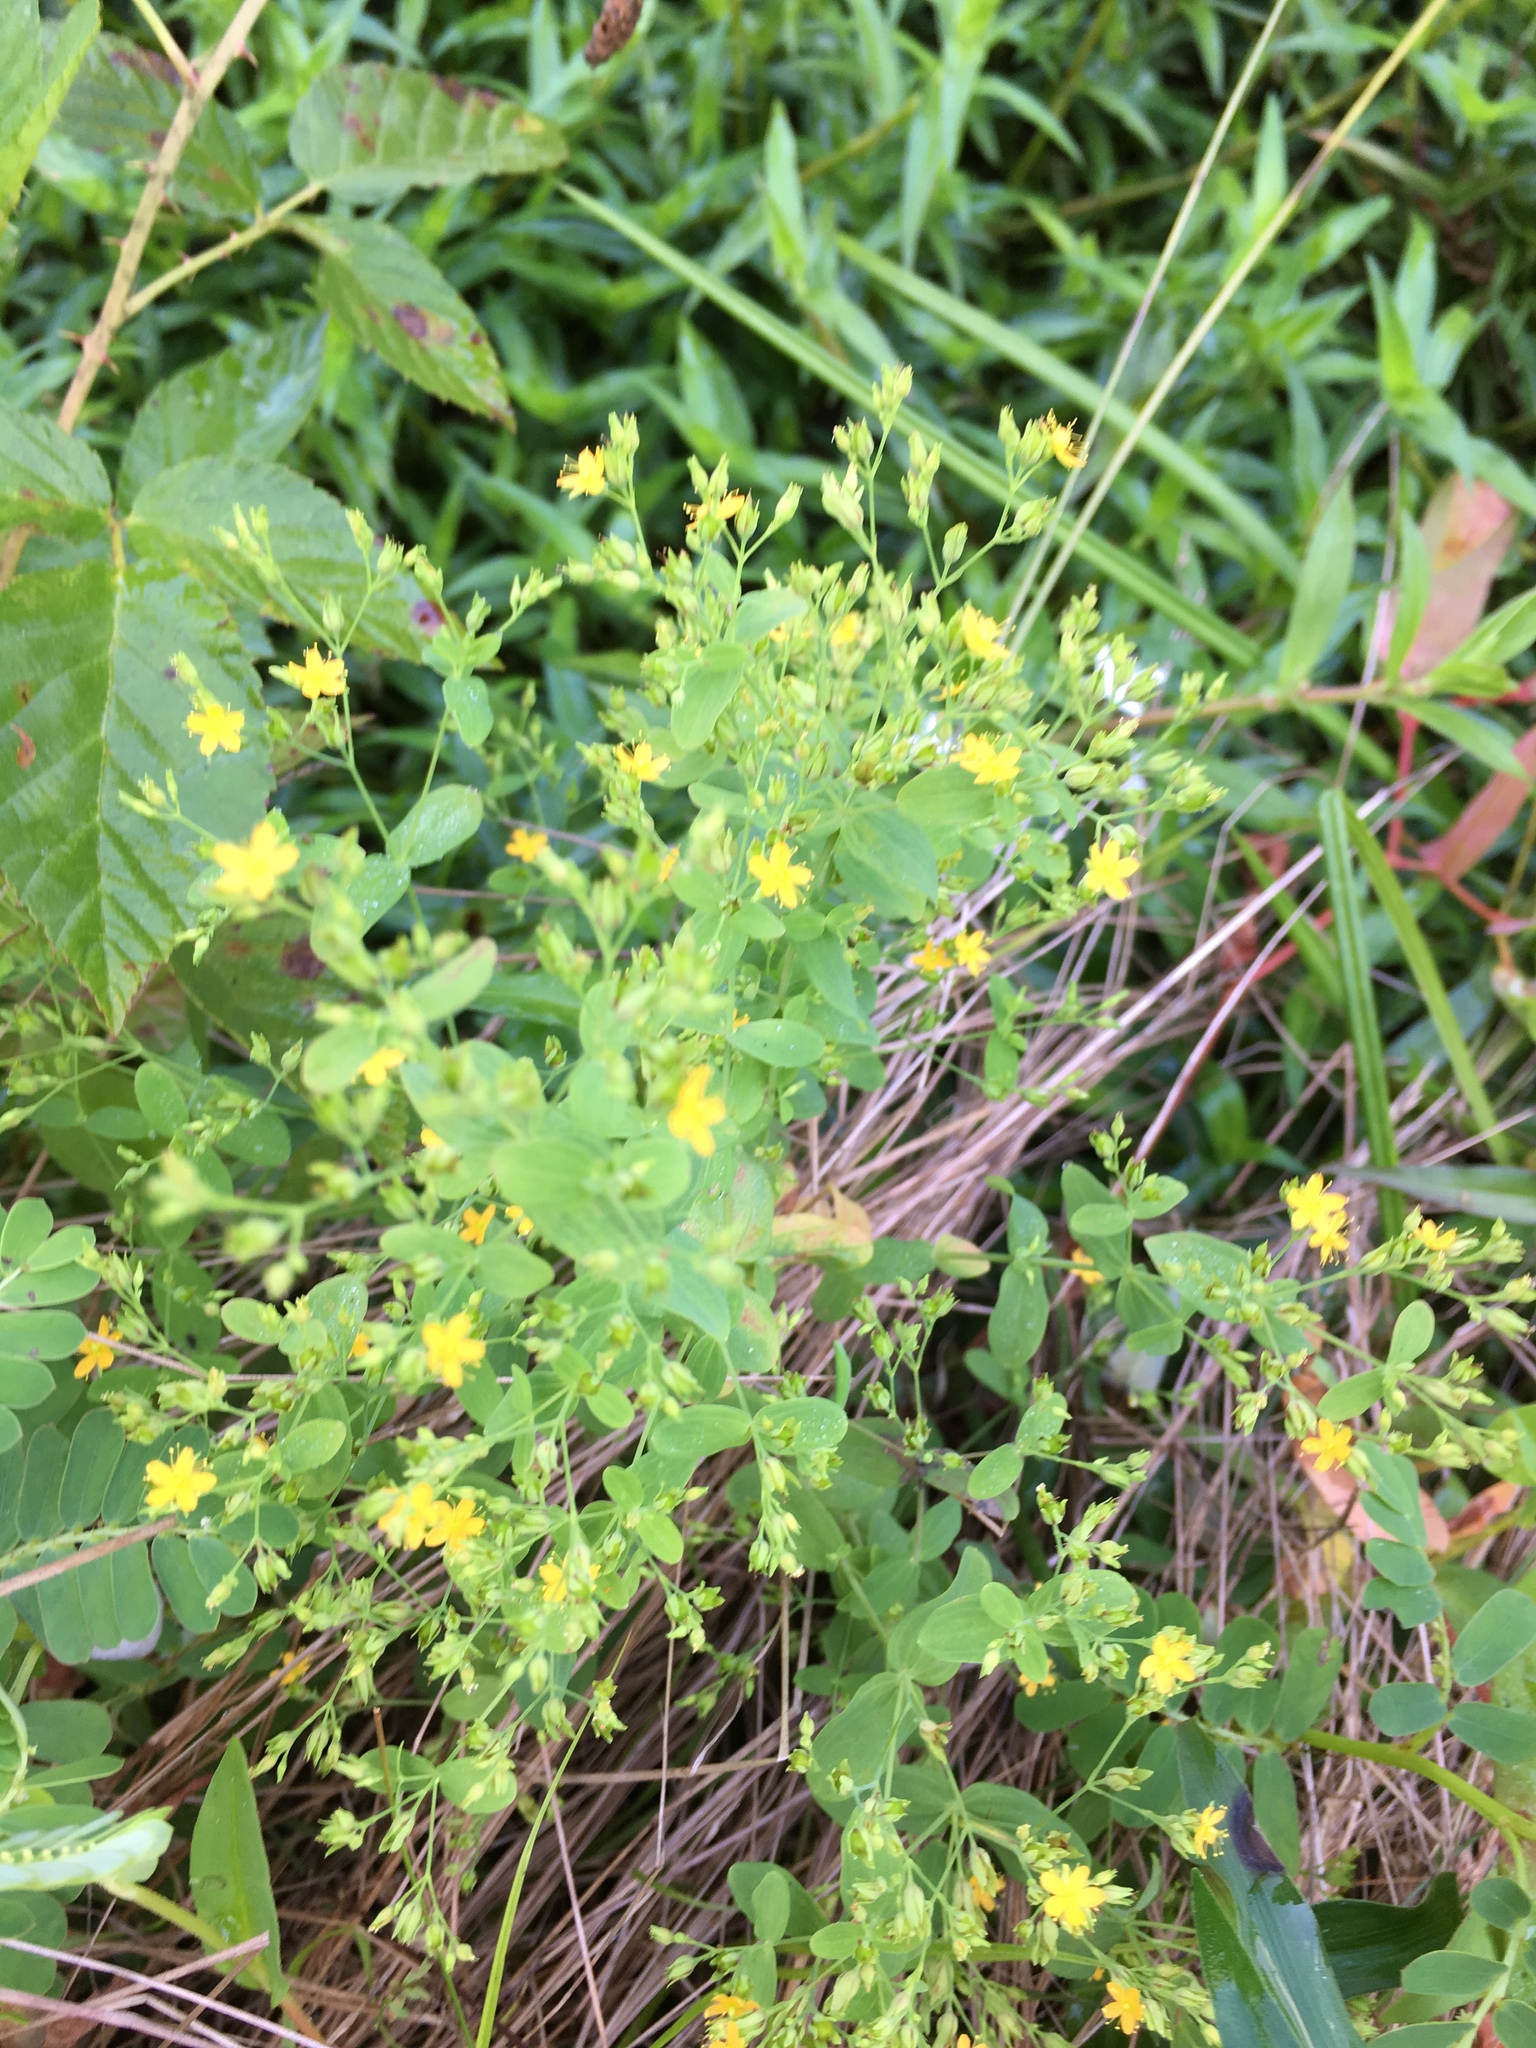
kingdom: Plantae
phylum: Tracheophyta
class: Magnoliopsida
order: Malpighiales
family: Hypericaceae
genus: Hypericum
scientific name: Hypericum mutilum
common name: Dwarf st. john's-wort
